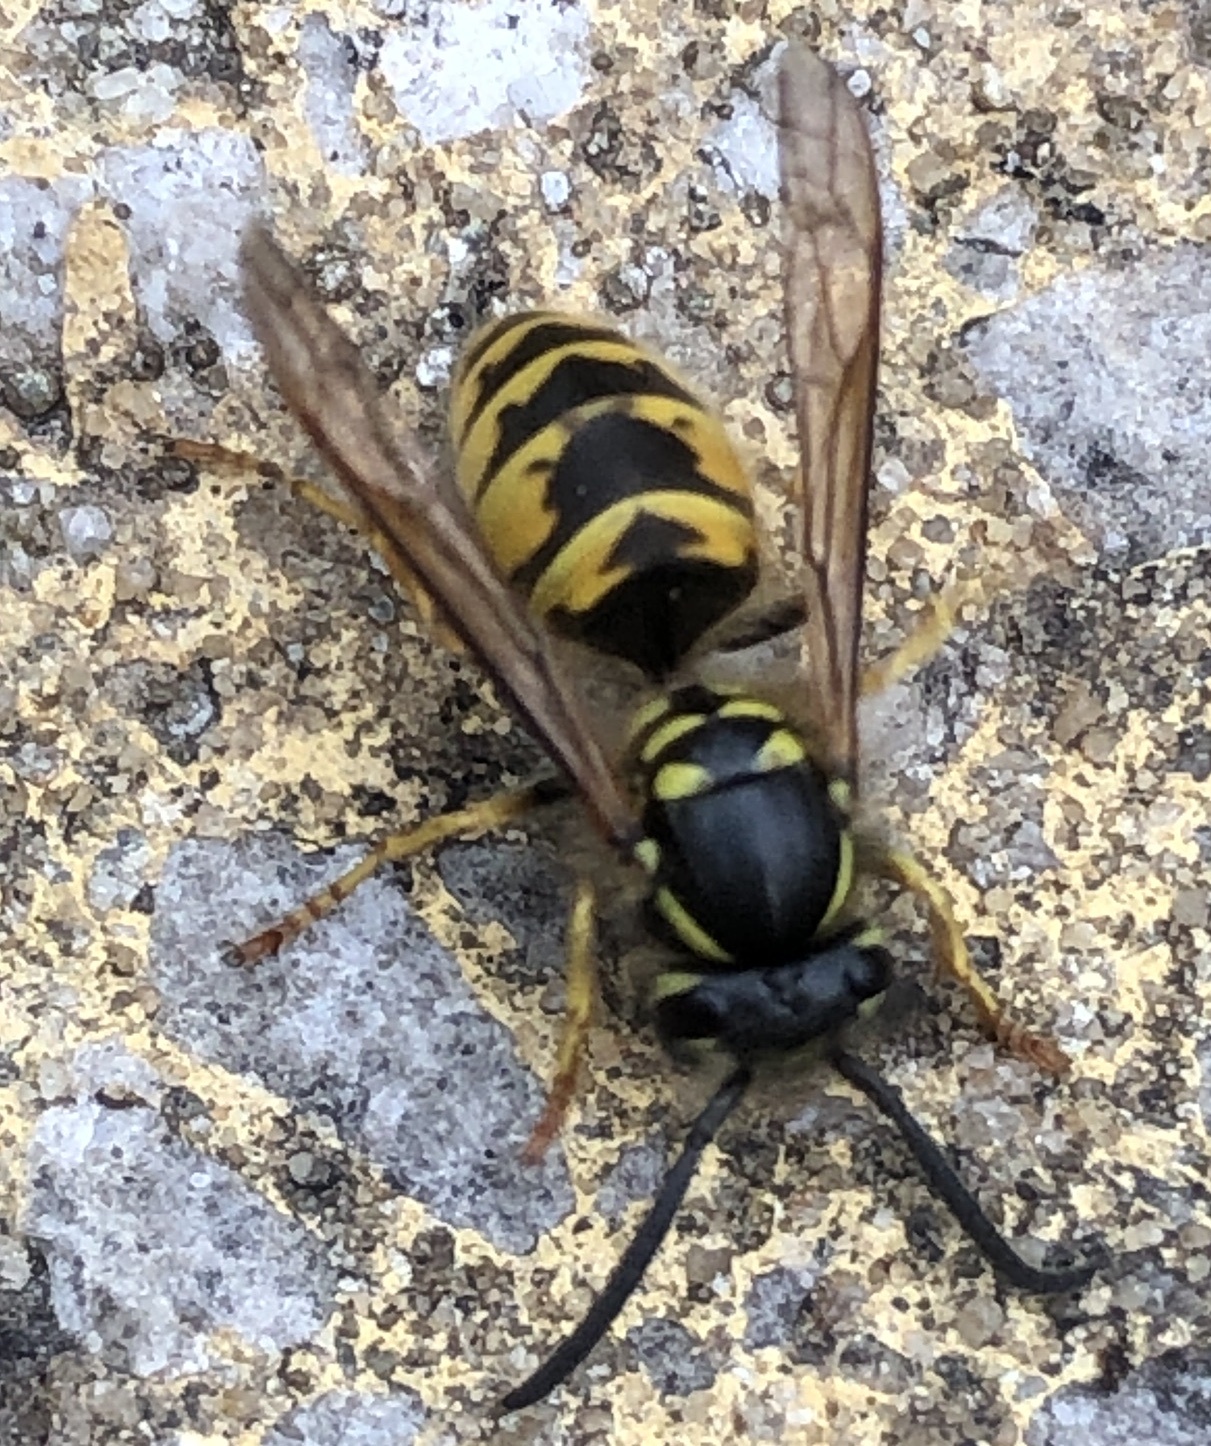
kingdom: Animalia
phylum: Arthropoda
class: Insecta
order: Hymenoptera
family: Vespidae
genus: Vespula
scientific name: Vespula vulgaris
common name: Common wasp
